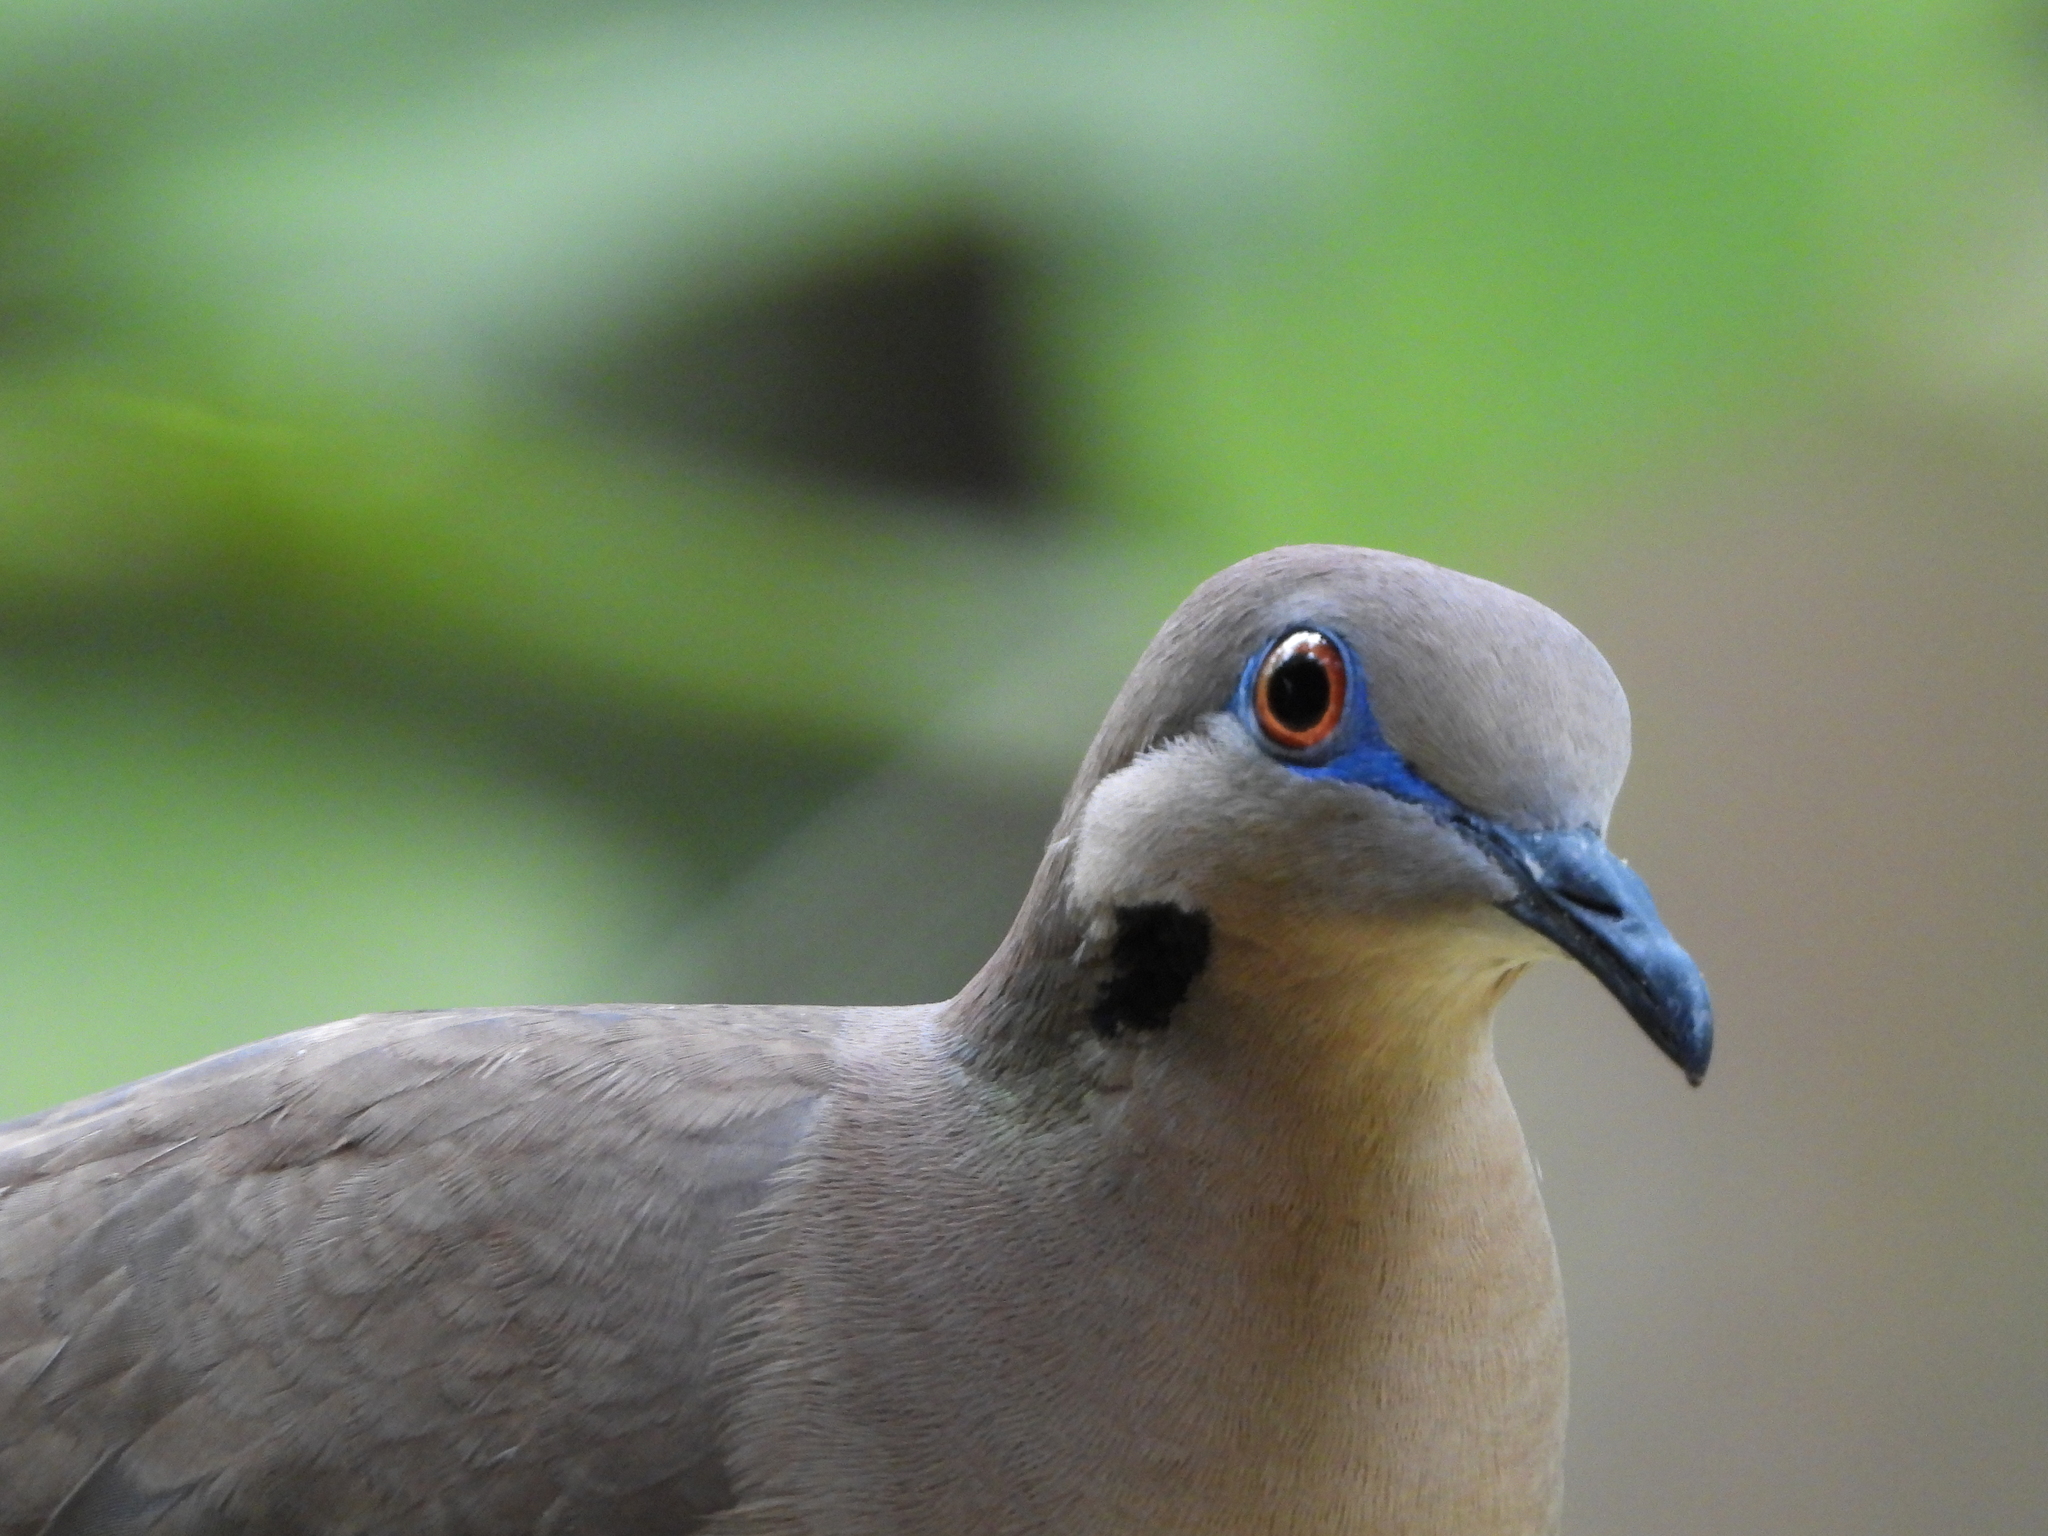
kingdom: Animalia
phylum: Chordata
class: Aves
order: Columbiformes
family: Columbidae
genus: Zenaida
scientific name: Zenaida asiatica
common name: White-winged dove
